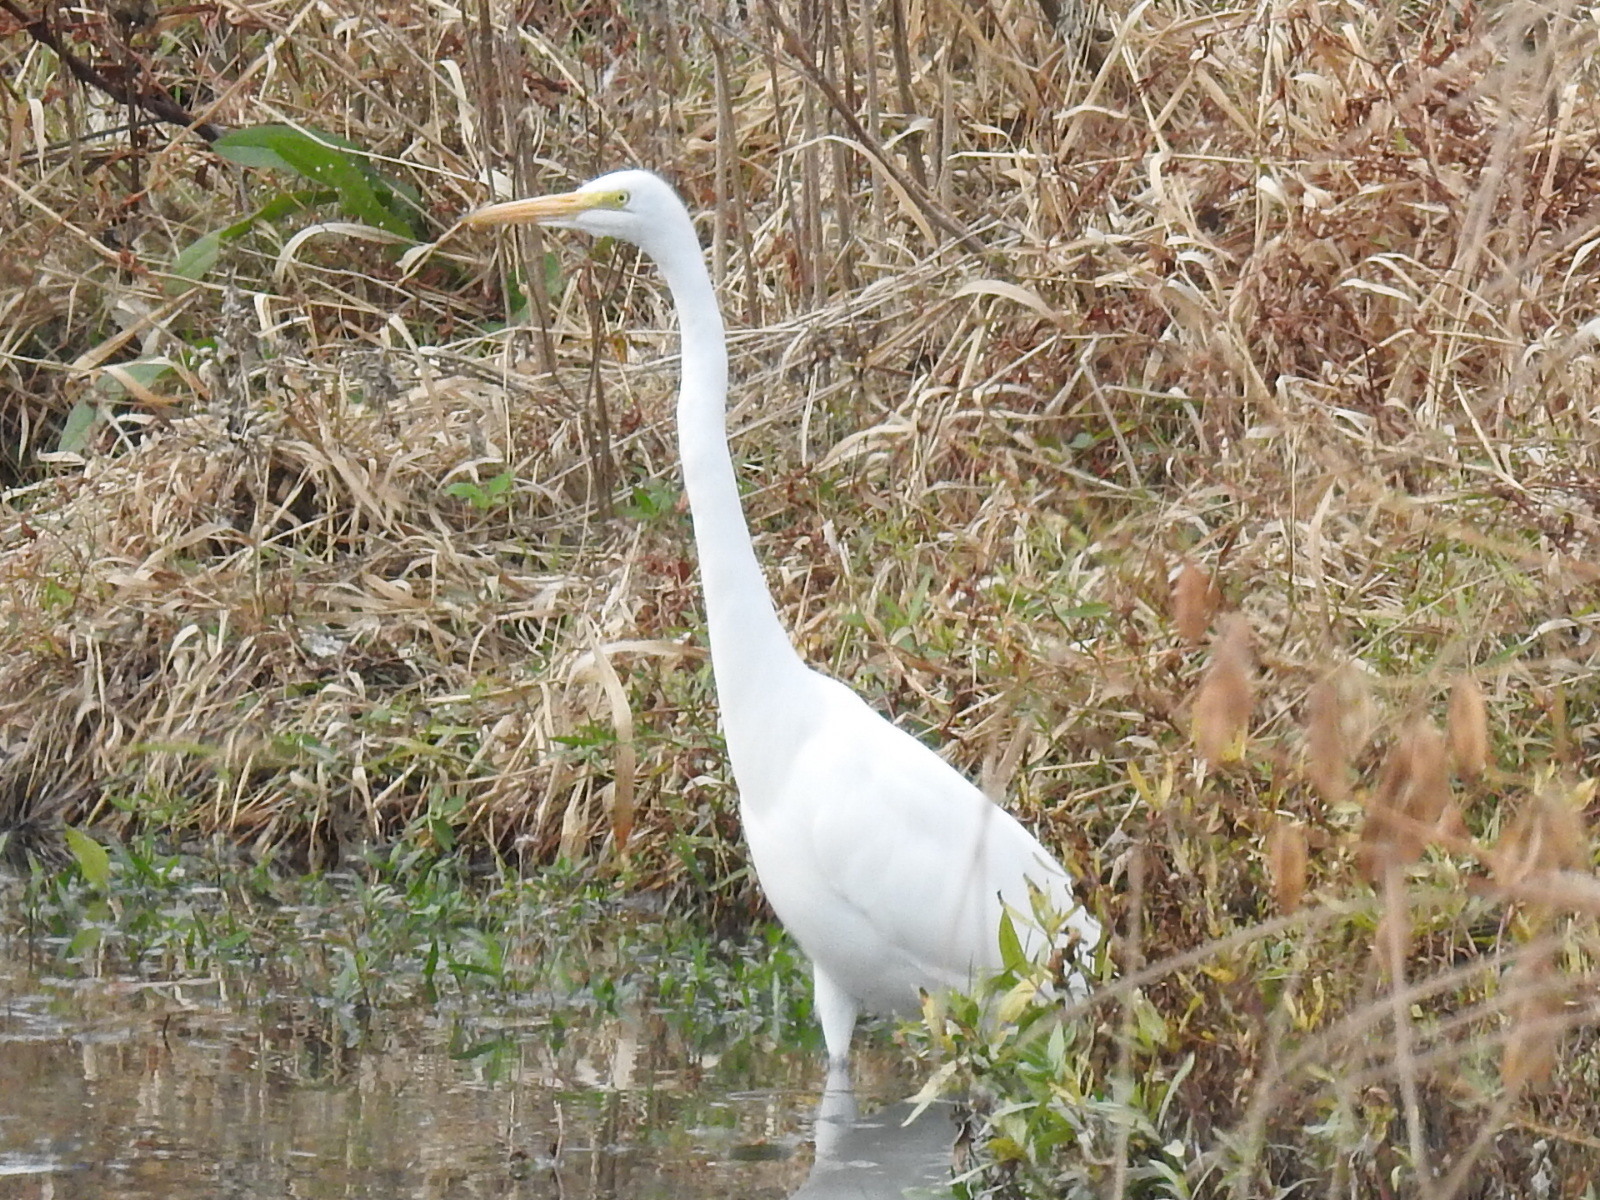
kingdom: Animalia
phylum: Chordata
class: Aves
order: Pelecaniformes
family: Ardeidae
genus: Ardea
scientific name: Ardea alba
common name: Great egret
